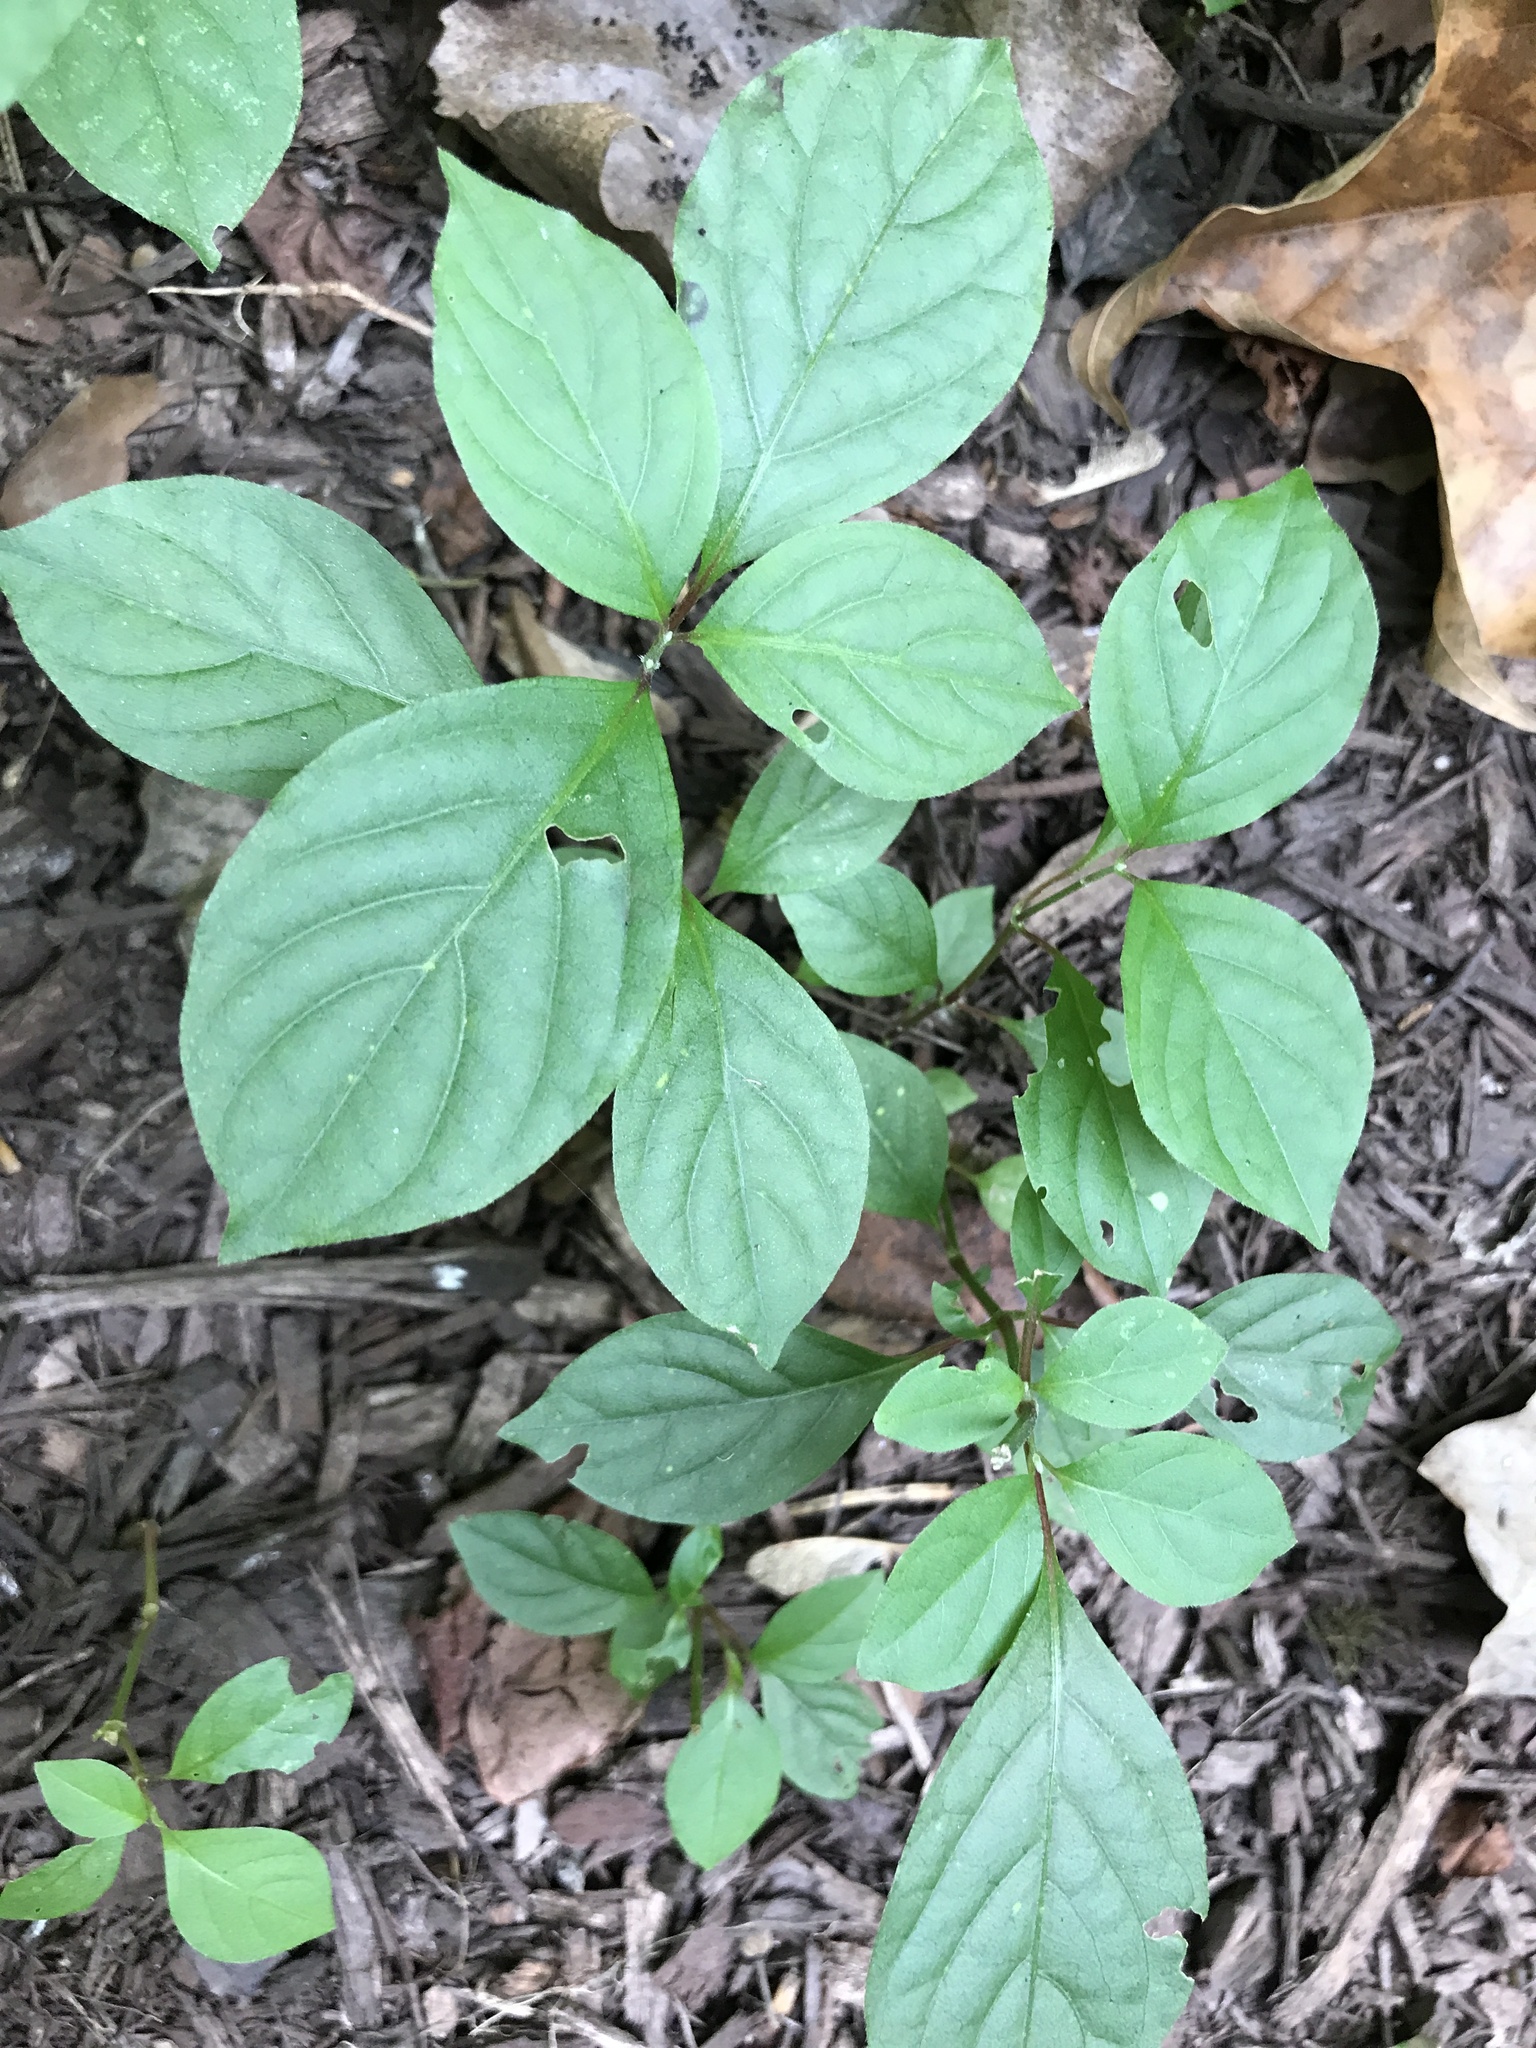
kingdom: Plantae
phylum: Tracheophyta
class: Magnoliopsida
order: Caryophyllales
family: Amaranthaceae
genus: Achyranthes
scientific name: Achyranthes bidentata
